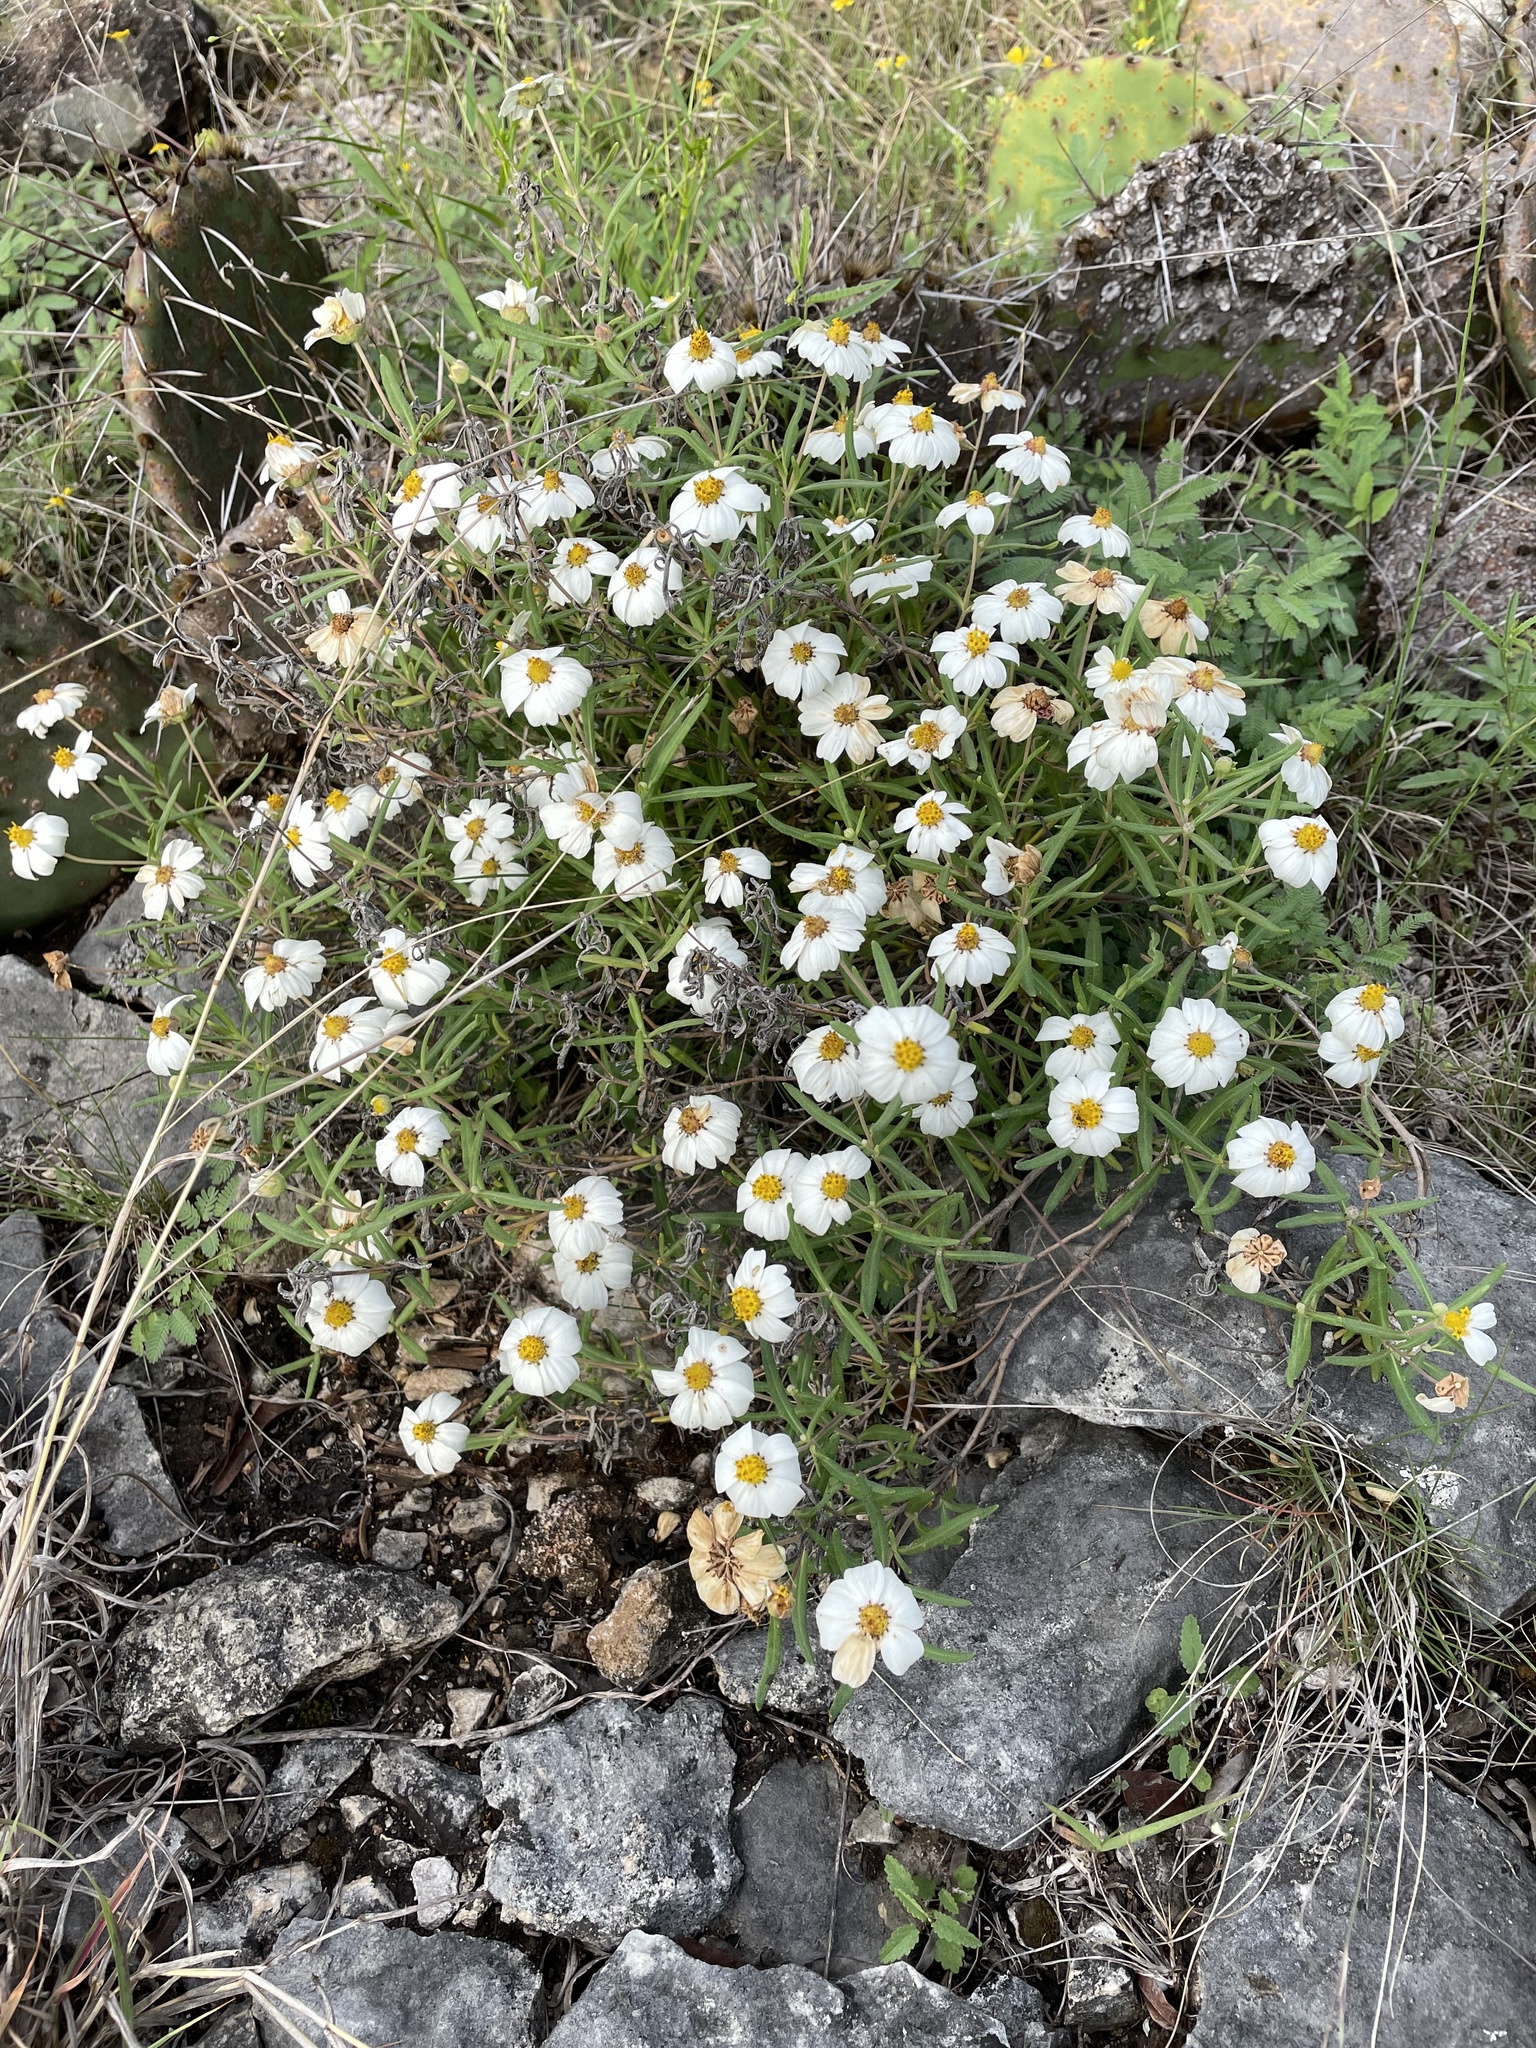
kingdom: Plantae
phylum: Tracheophyta
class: Magnoliopsida
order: Asterales
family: Asteraceae
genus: Melampodium
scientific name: Melampodium leucanthum
